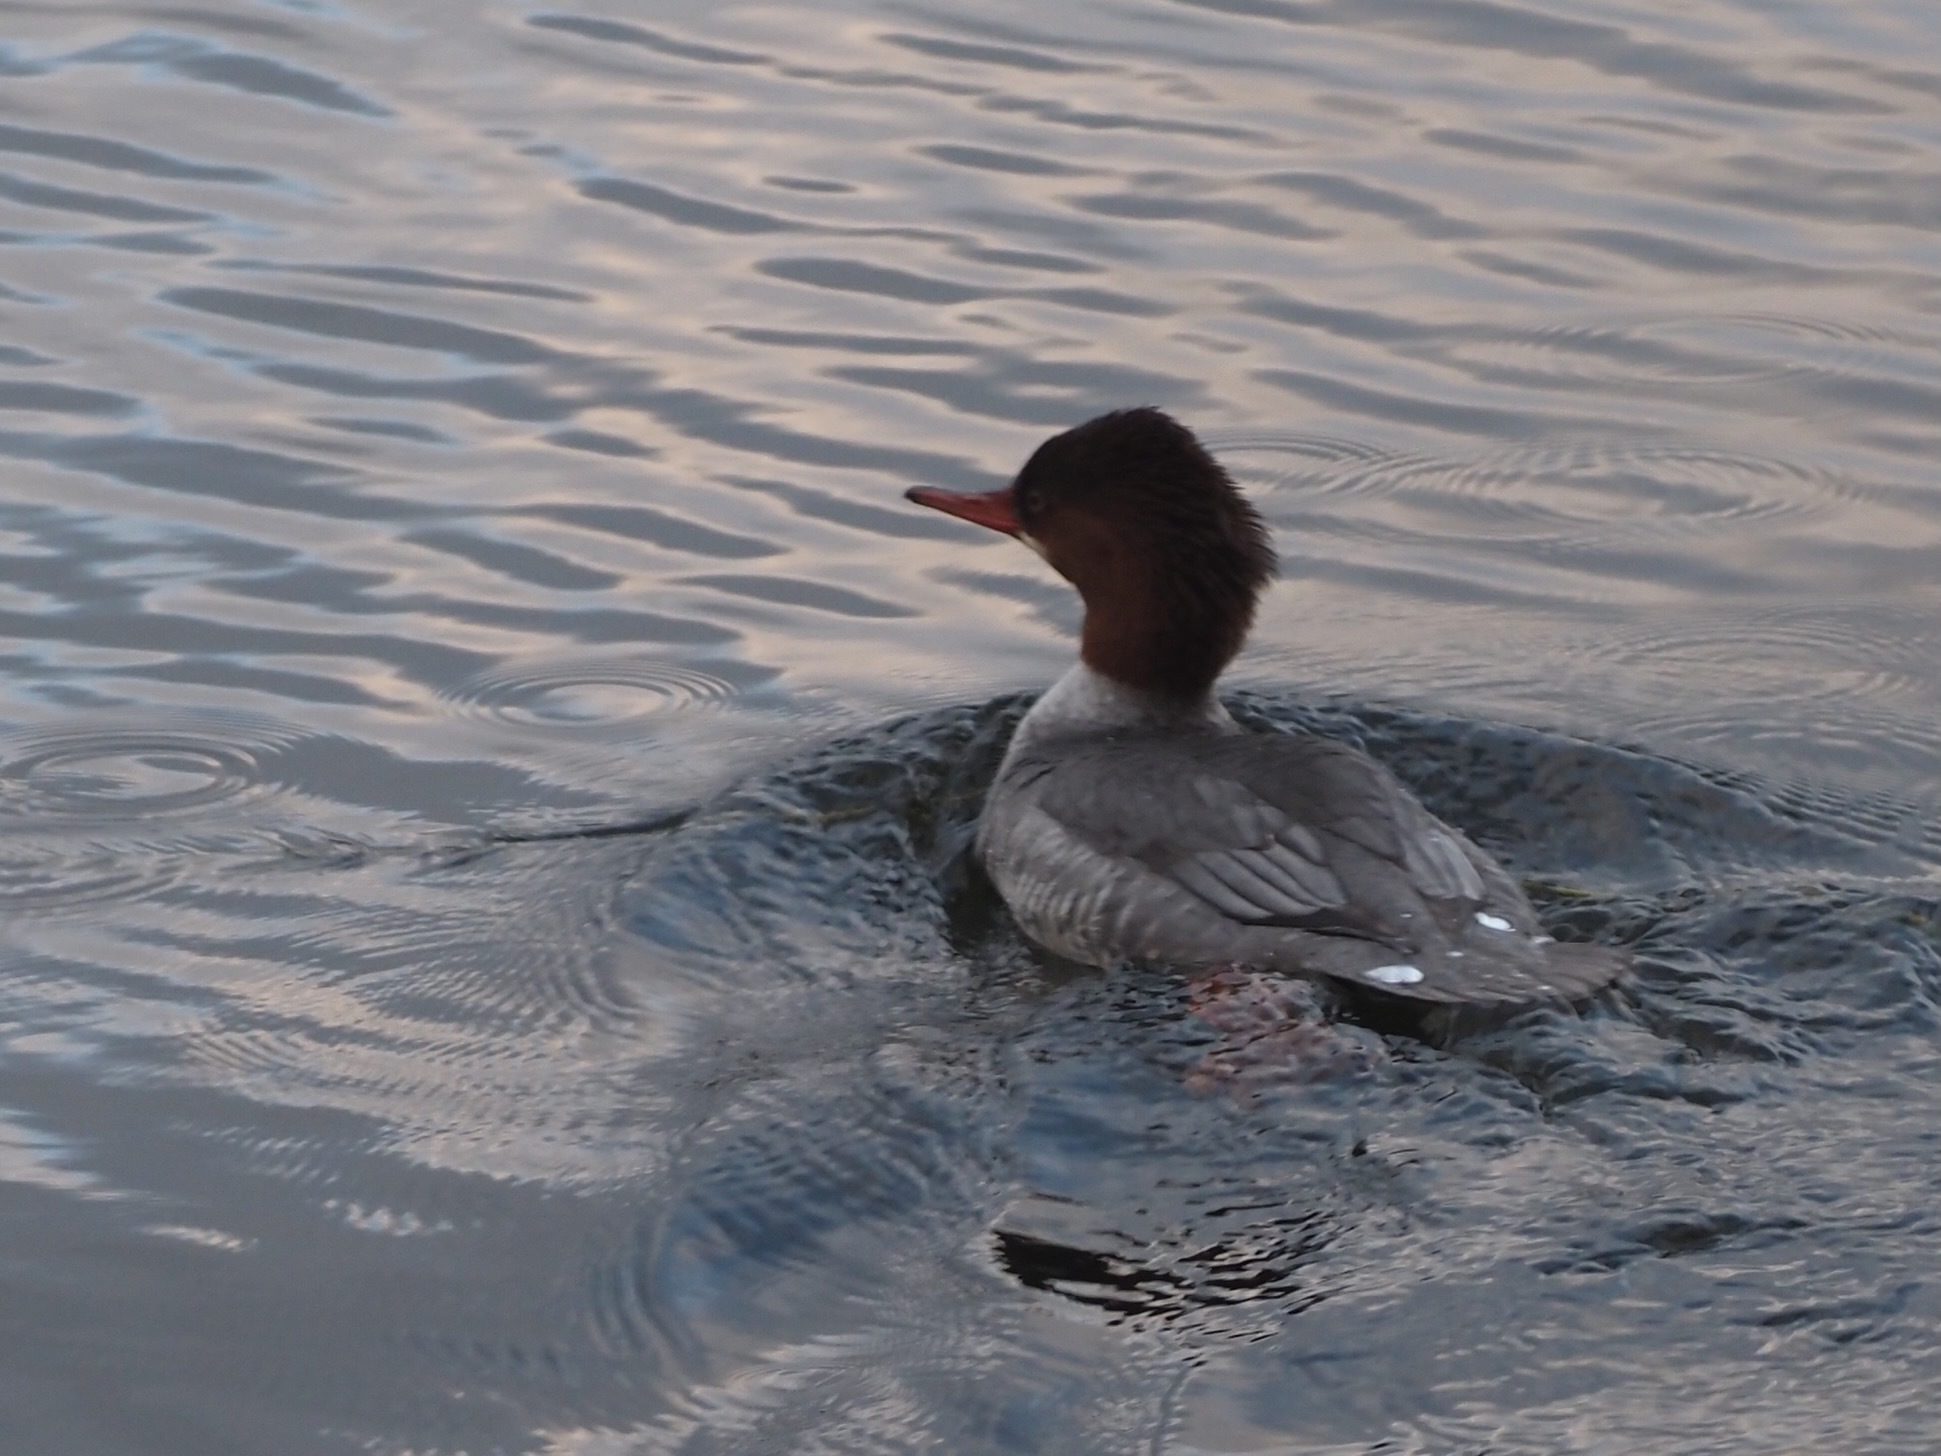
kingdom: Animalia
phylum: Chordata
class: Aves
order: Anseriformes
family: Anatidae
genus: Mergus
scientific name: Mergus merganser
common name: Common merganser
